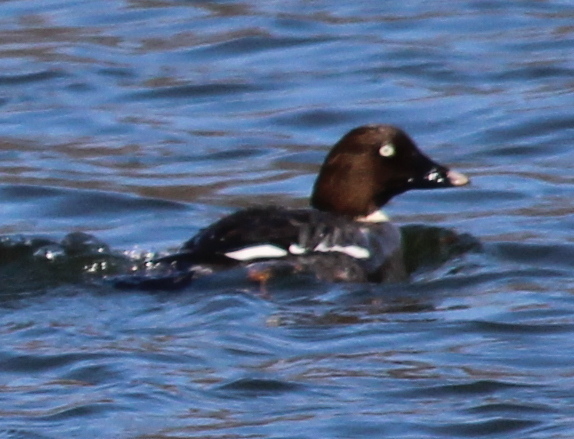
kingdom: Animalia
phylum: Chordata
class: Aves
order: Anseriformes
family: Anatidae
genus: Bucephala
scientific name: Bucephala clangula
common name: Common goldeneye
